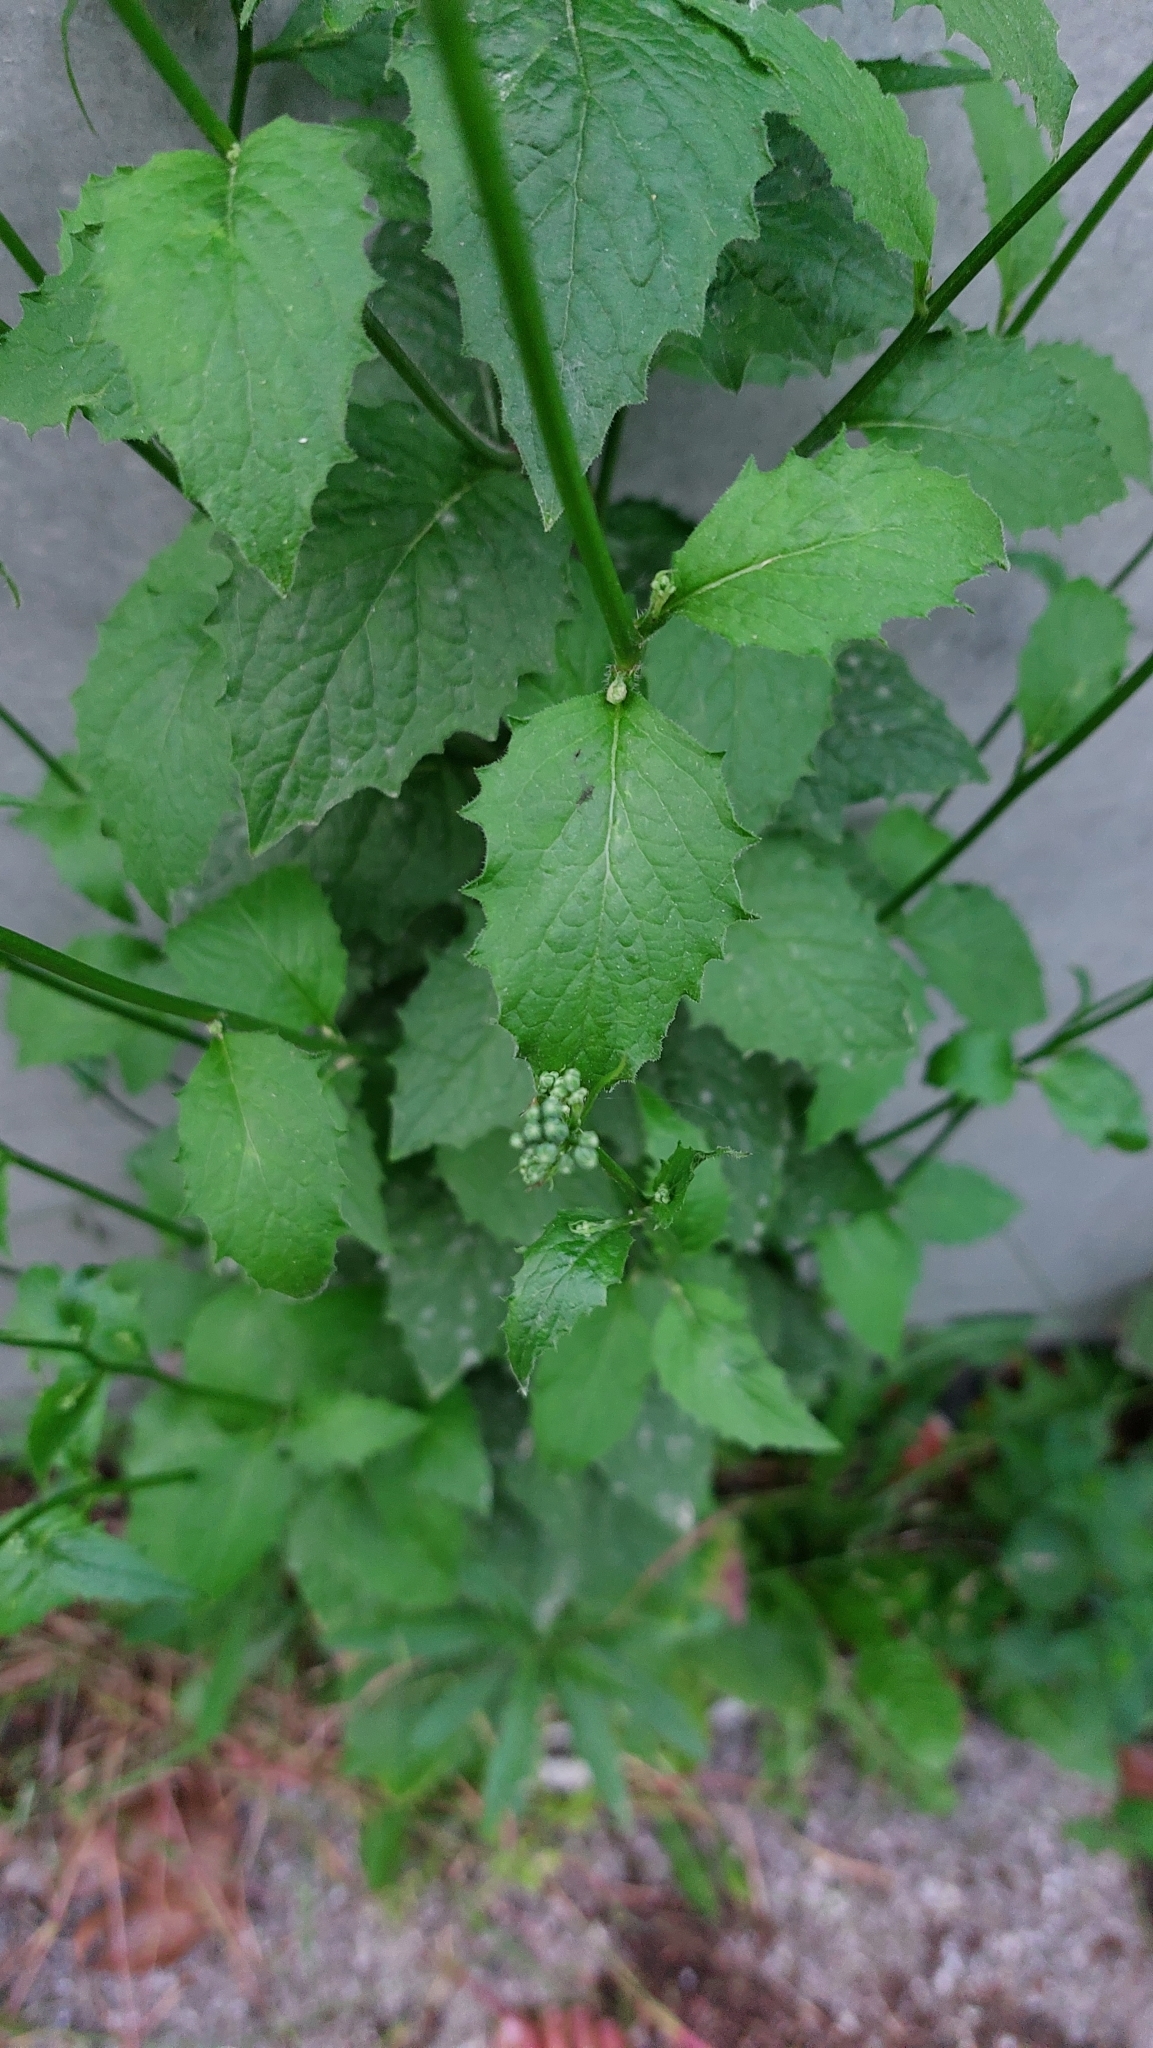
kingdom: Plantae
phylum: Tracheophyta
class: Magnoliopsida
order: Brassicales
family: Brassicaceae
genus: Alliaria
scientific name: Alliaria petiolata
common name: Garlic mustard
